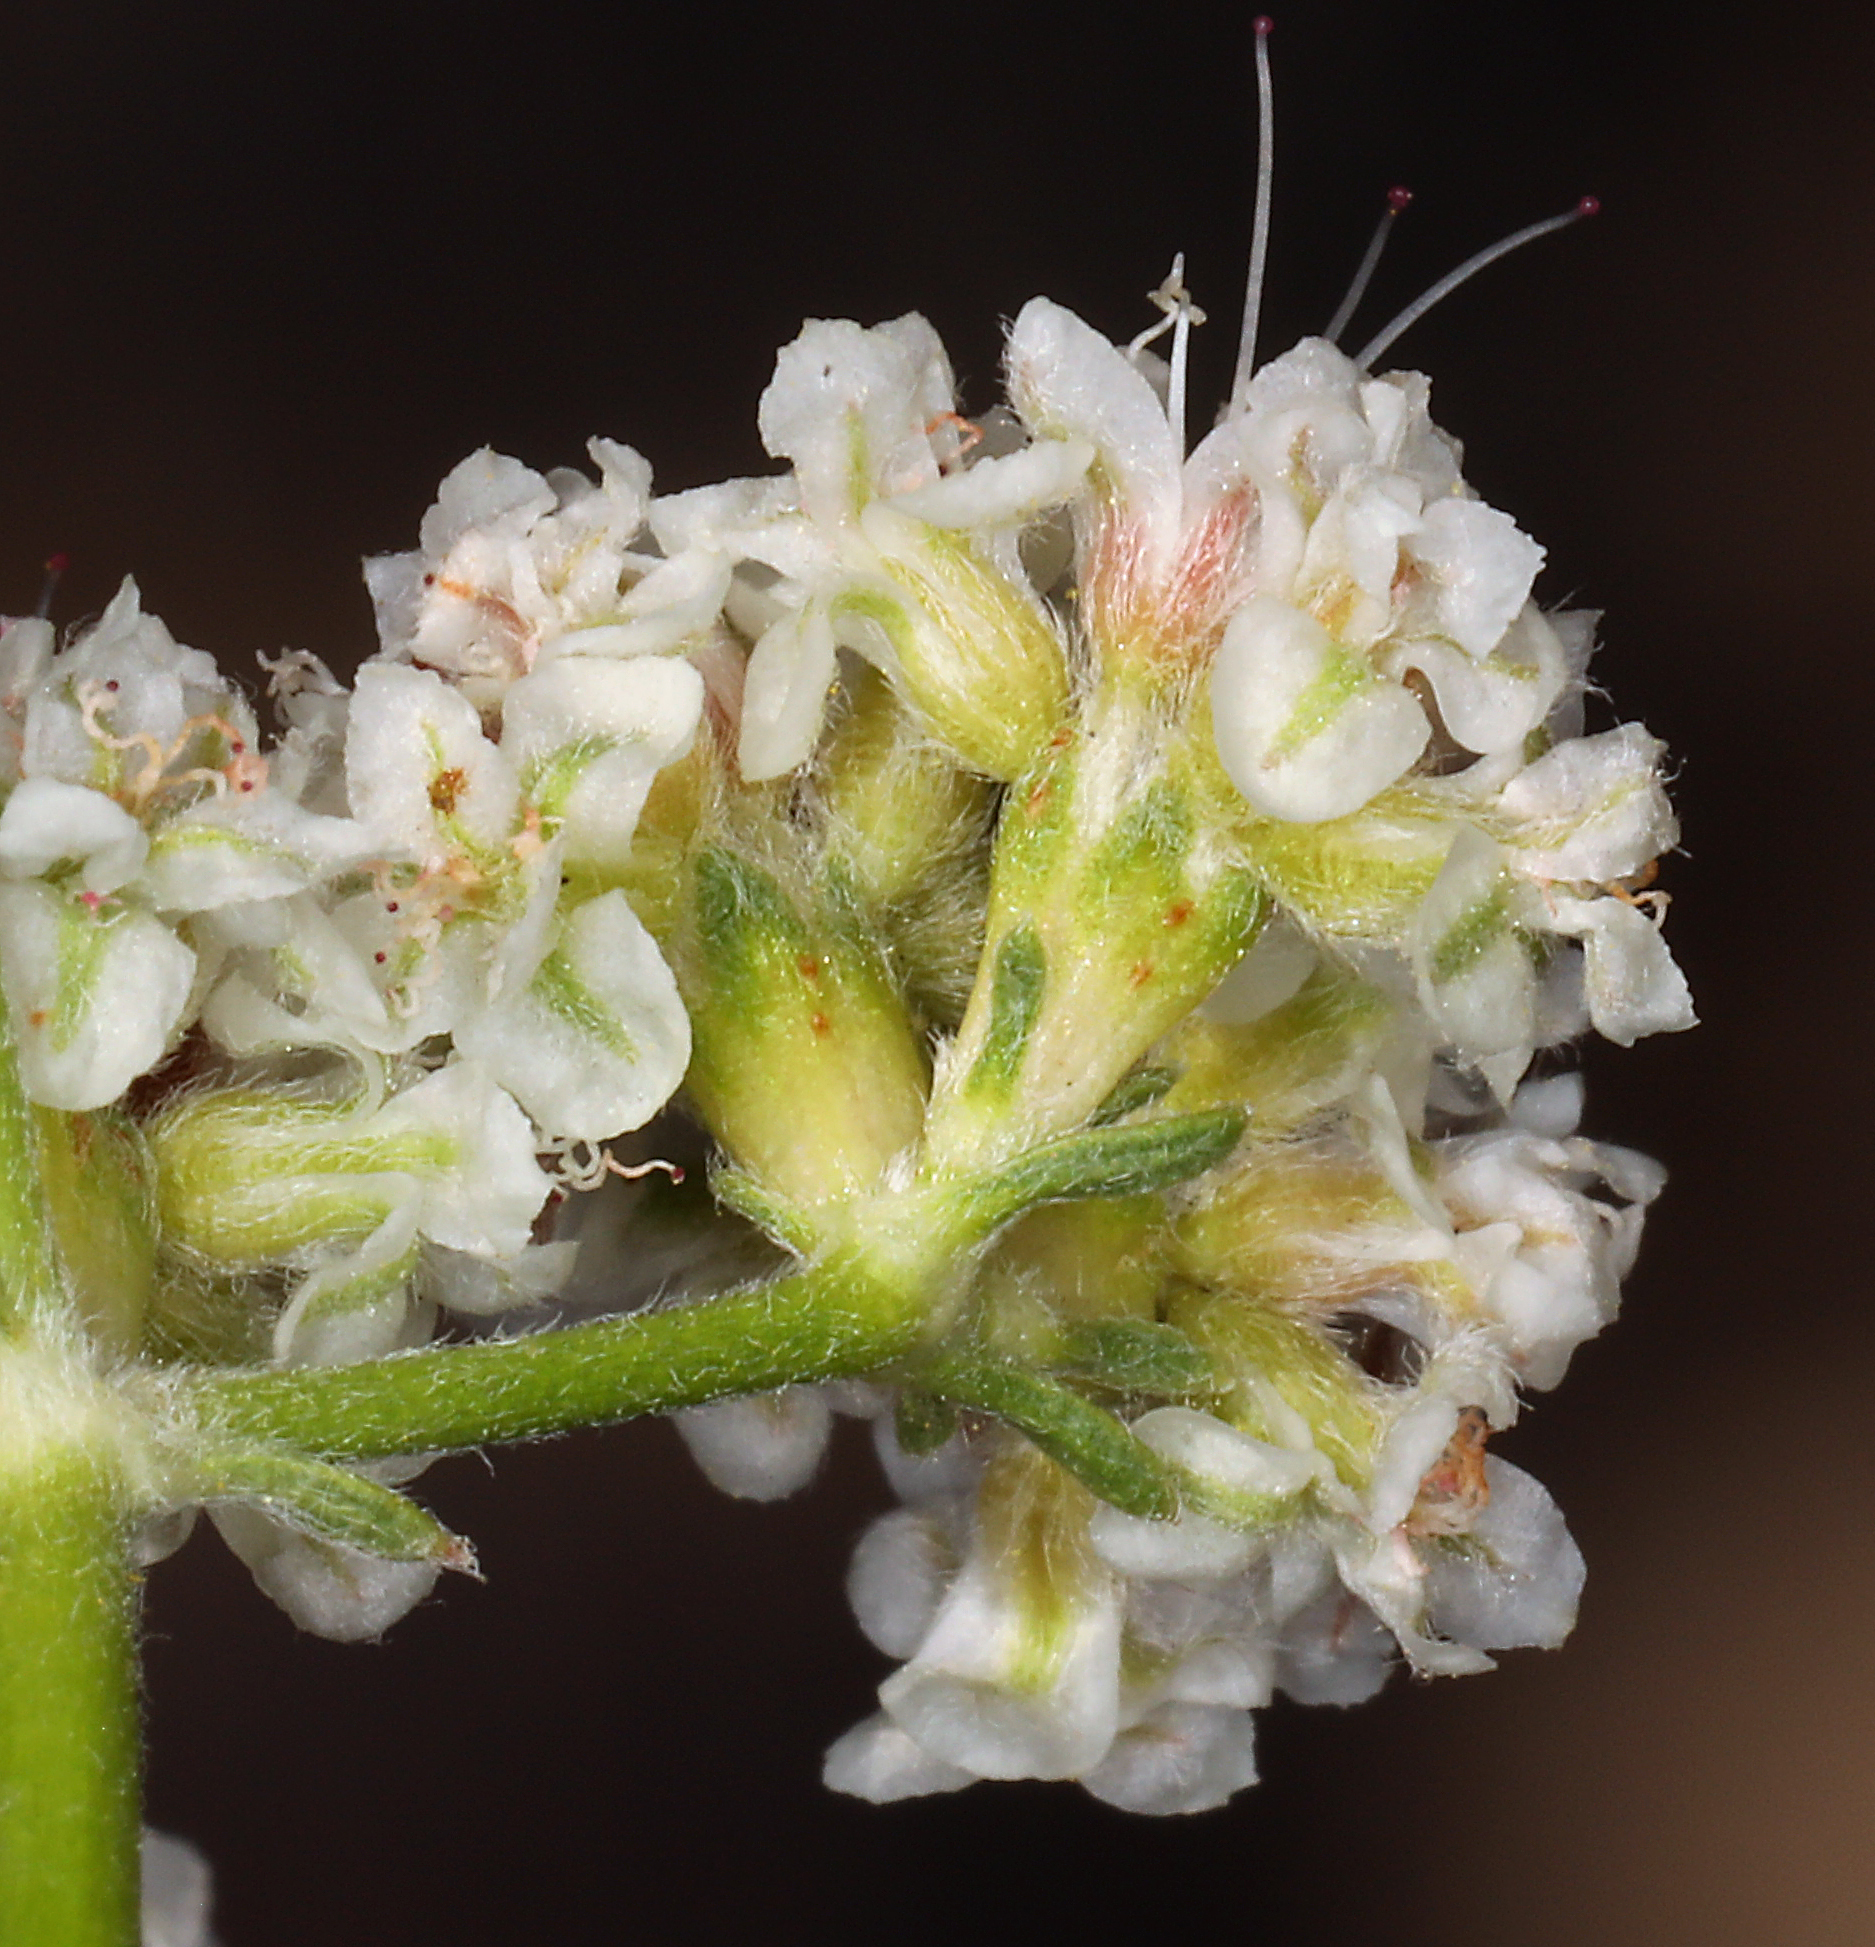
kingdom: Plantae
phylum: Tracheophyta
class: Magnoliopsida
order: Caryophyllales
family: Polygonaceae
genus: Eriogonum
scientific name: Eriogonum fasciculatum
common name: California wild buckwheat
